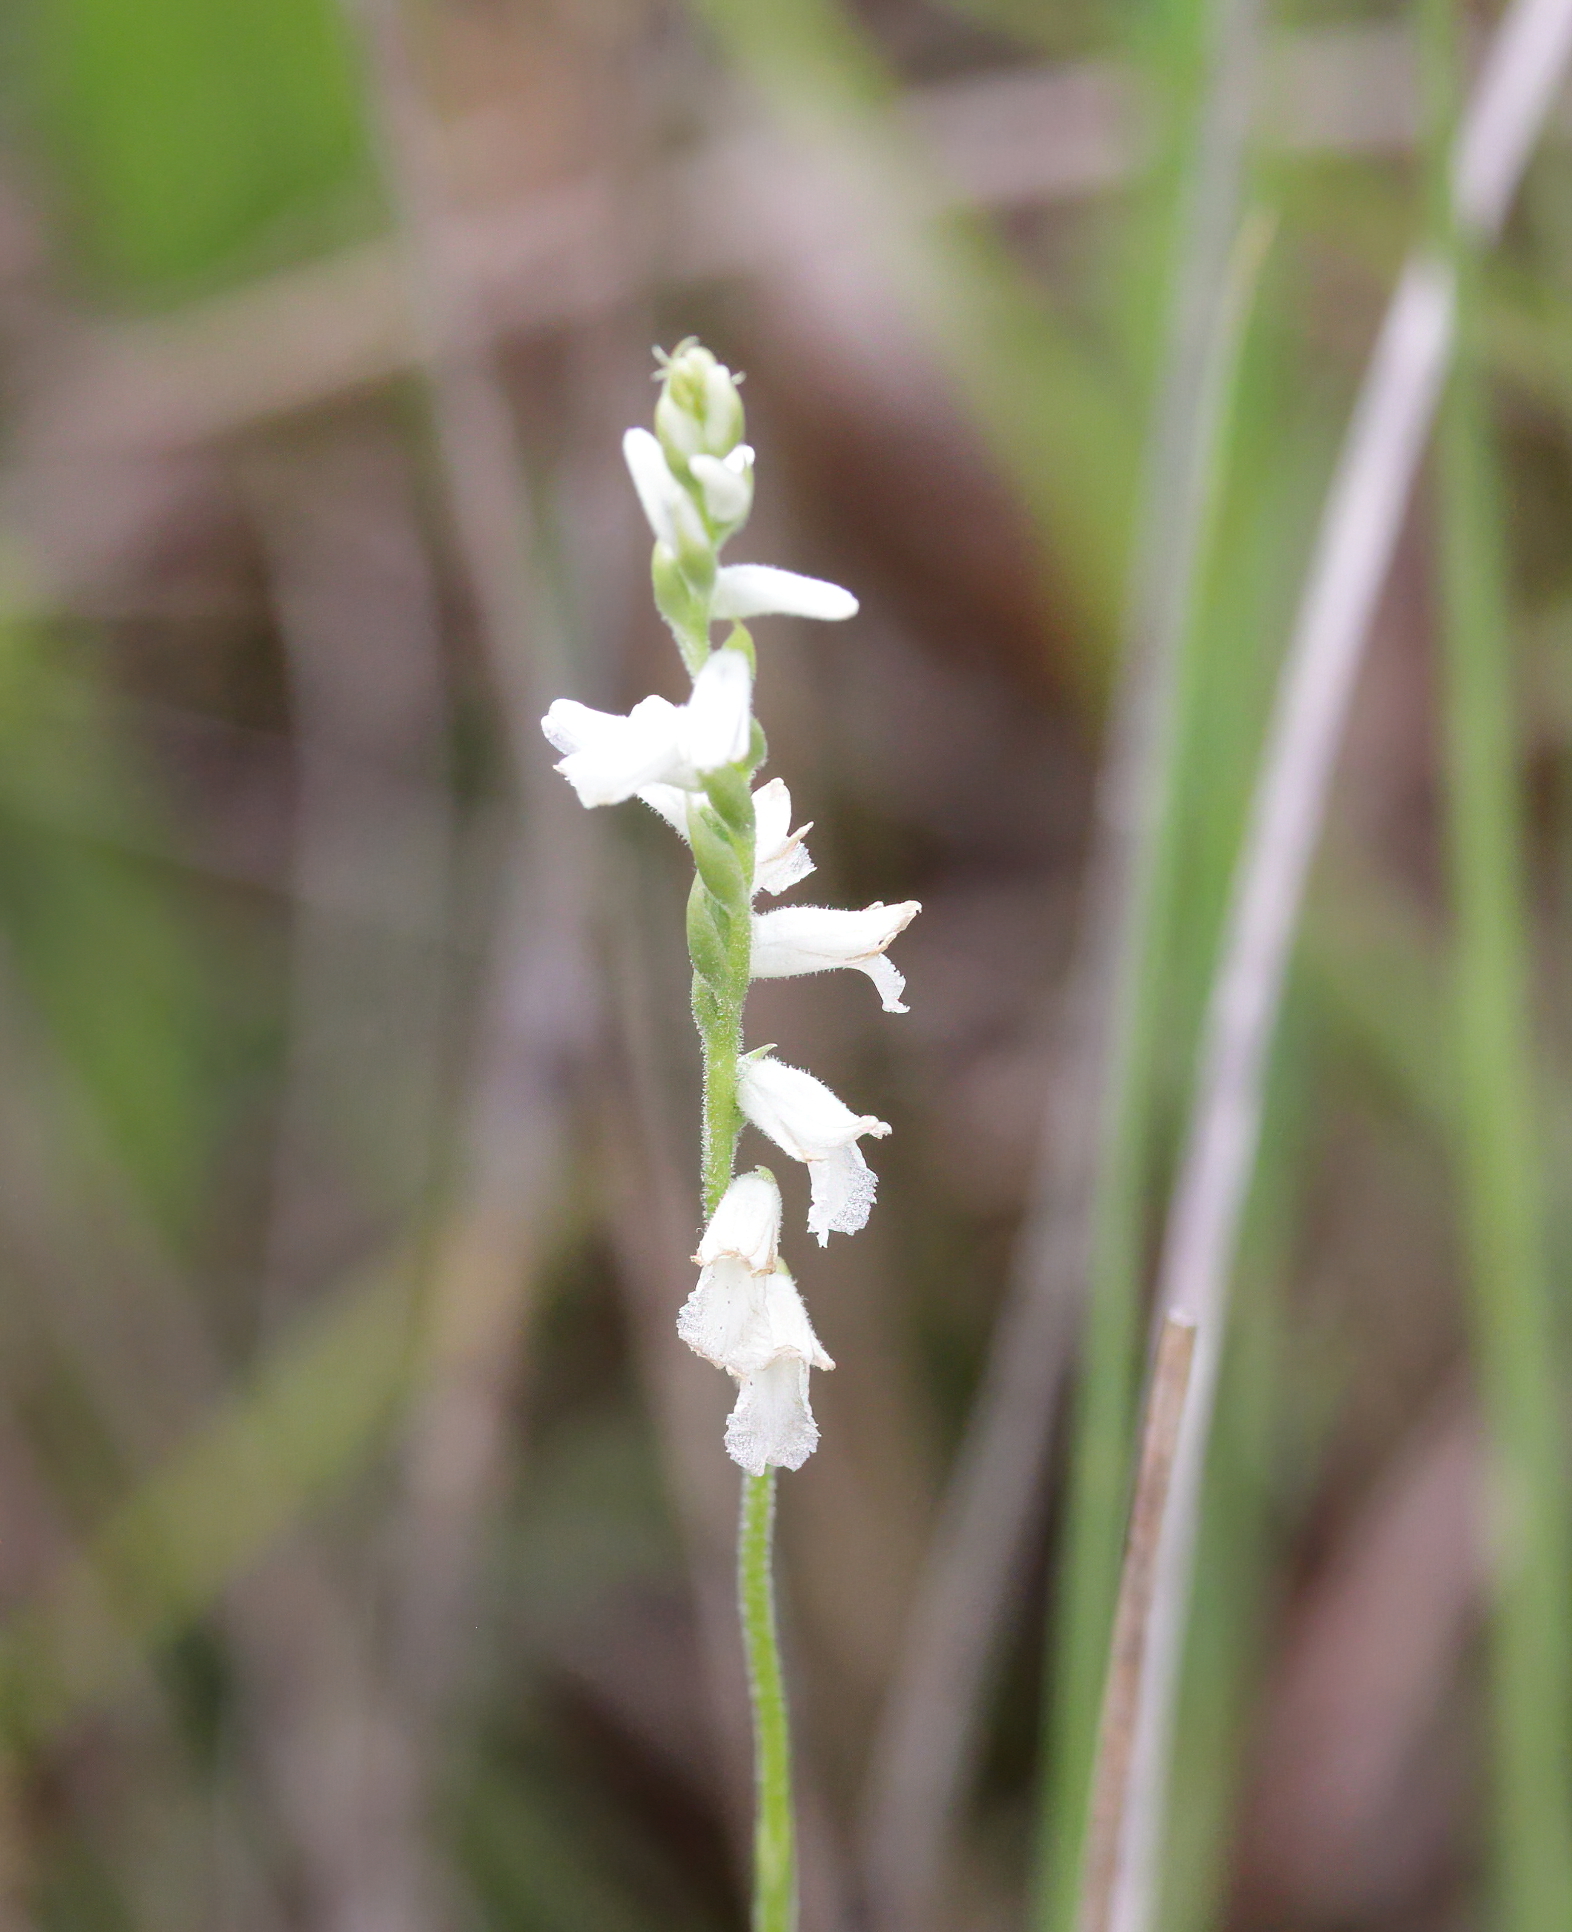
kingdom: Plantae
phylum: Tracheophyta
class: Liliopsida
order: Asparagales
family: Orchidaceae
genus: Spiranthes
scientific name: Spiranthes praecox
